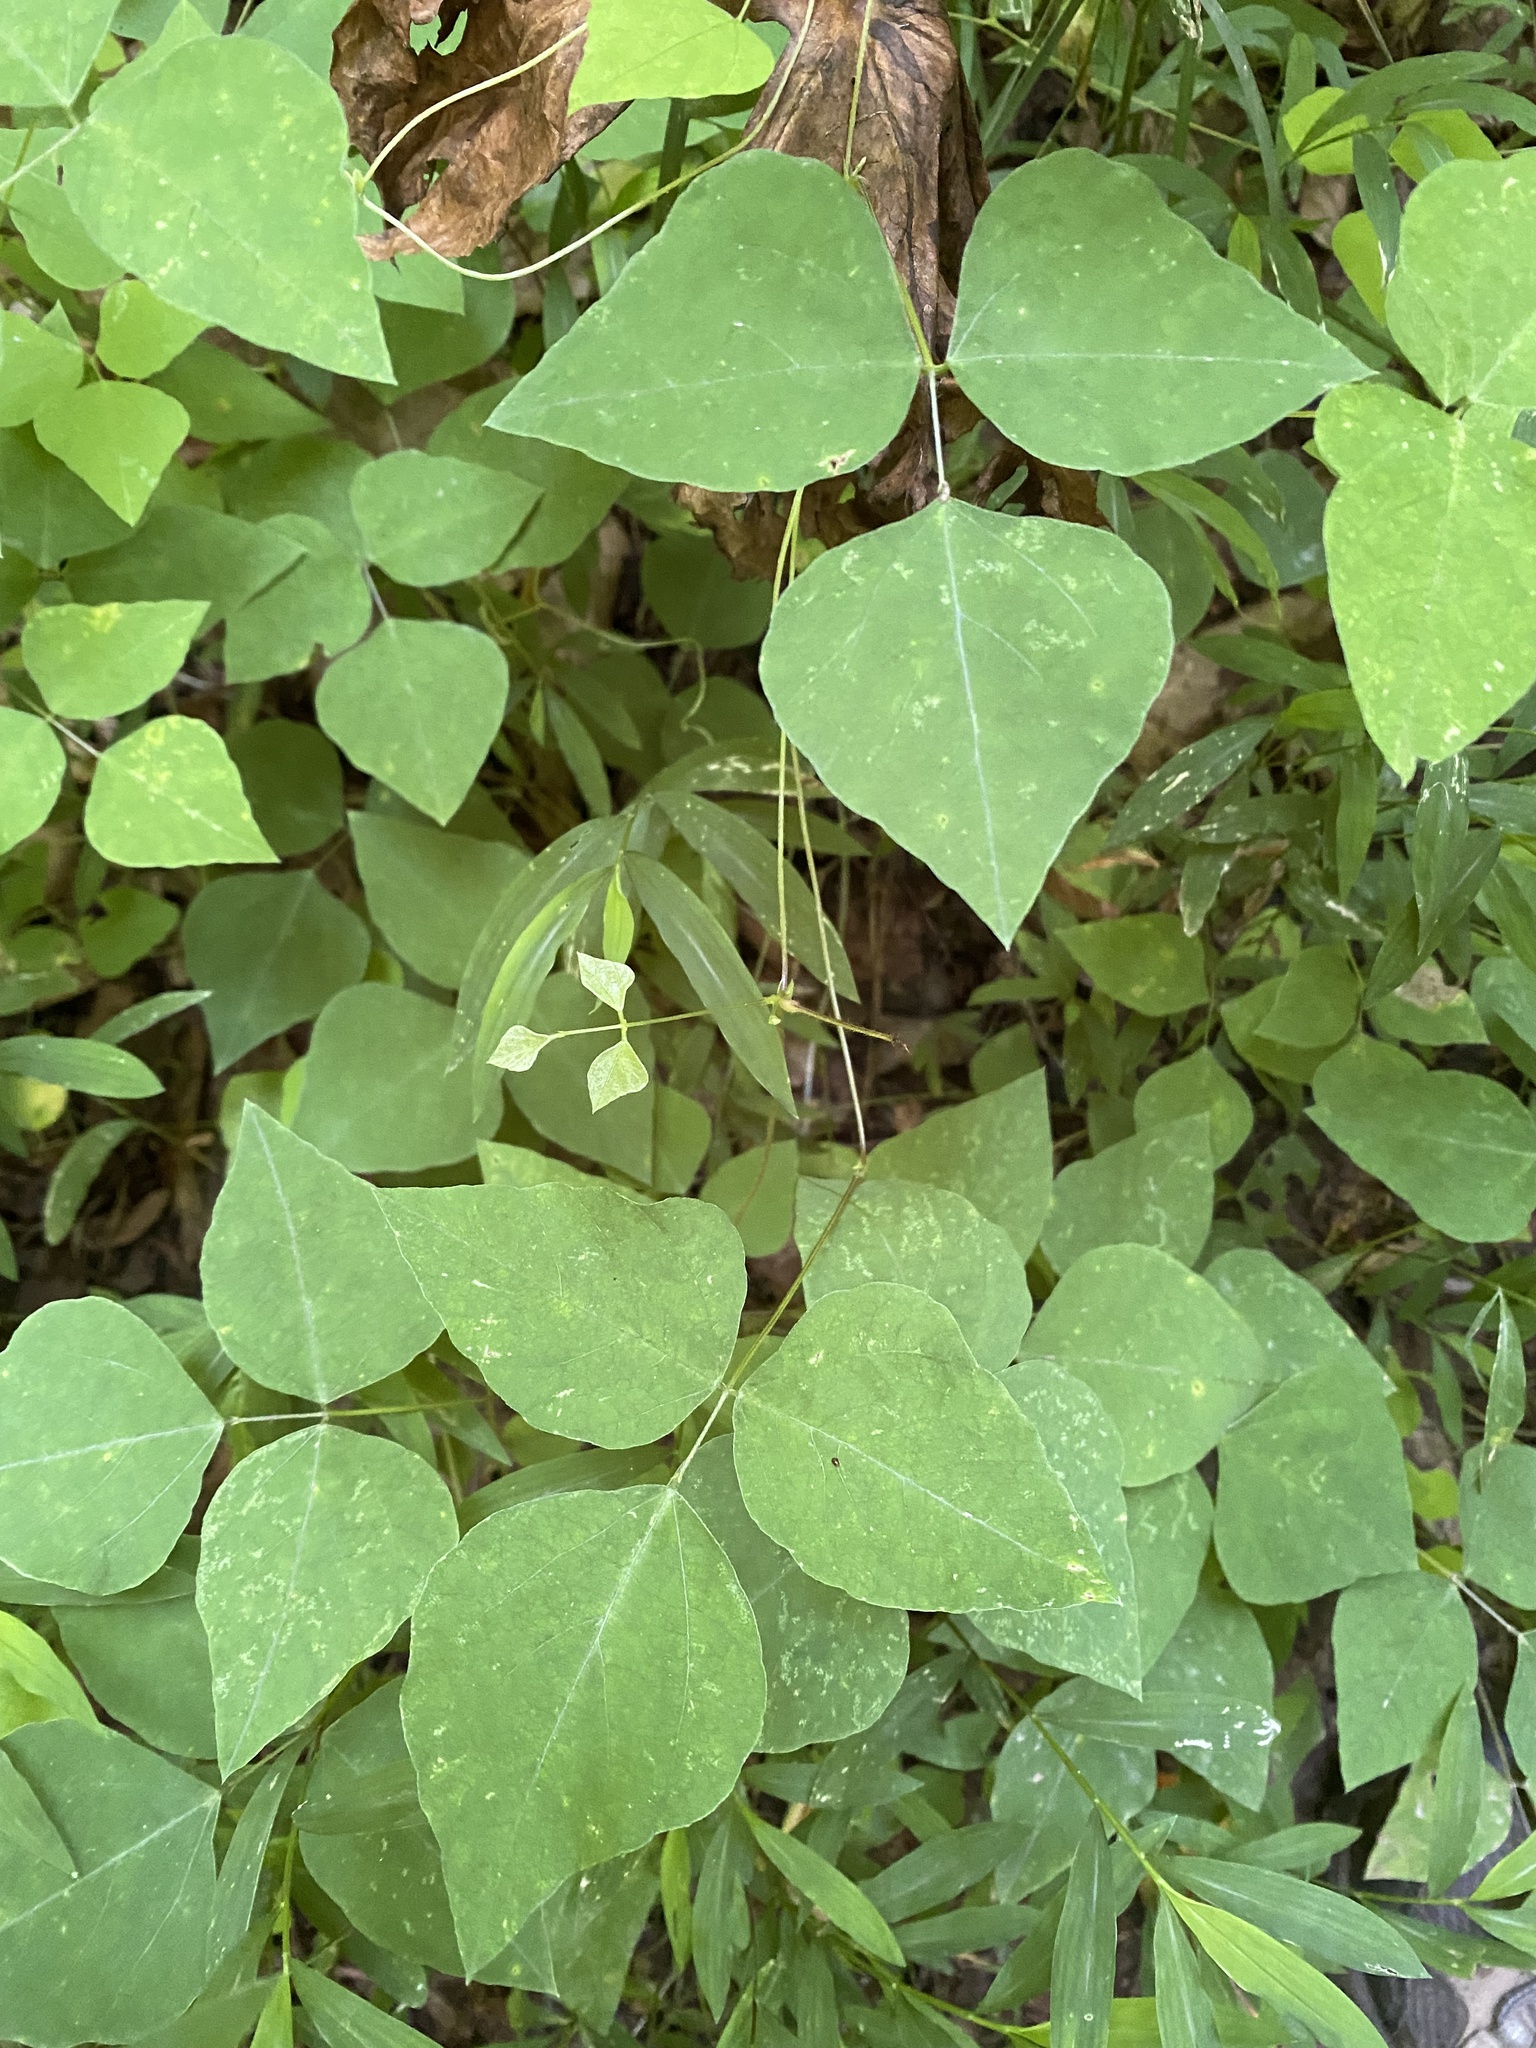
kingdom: Plantae
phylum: Tracheophyta
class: Magnoliopsida
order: Fabales
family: Fabaceae
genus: Amphicarpaea
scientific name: Amphicarpaea bracteata
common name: American hog peanut
